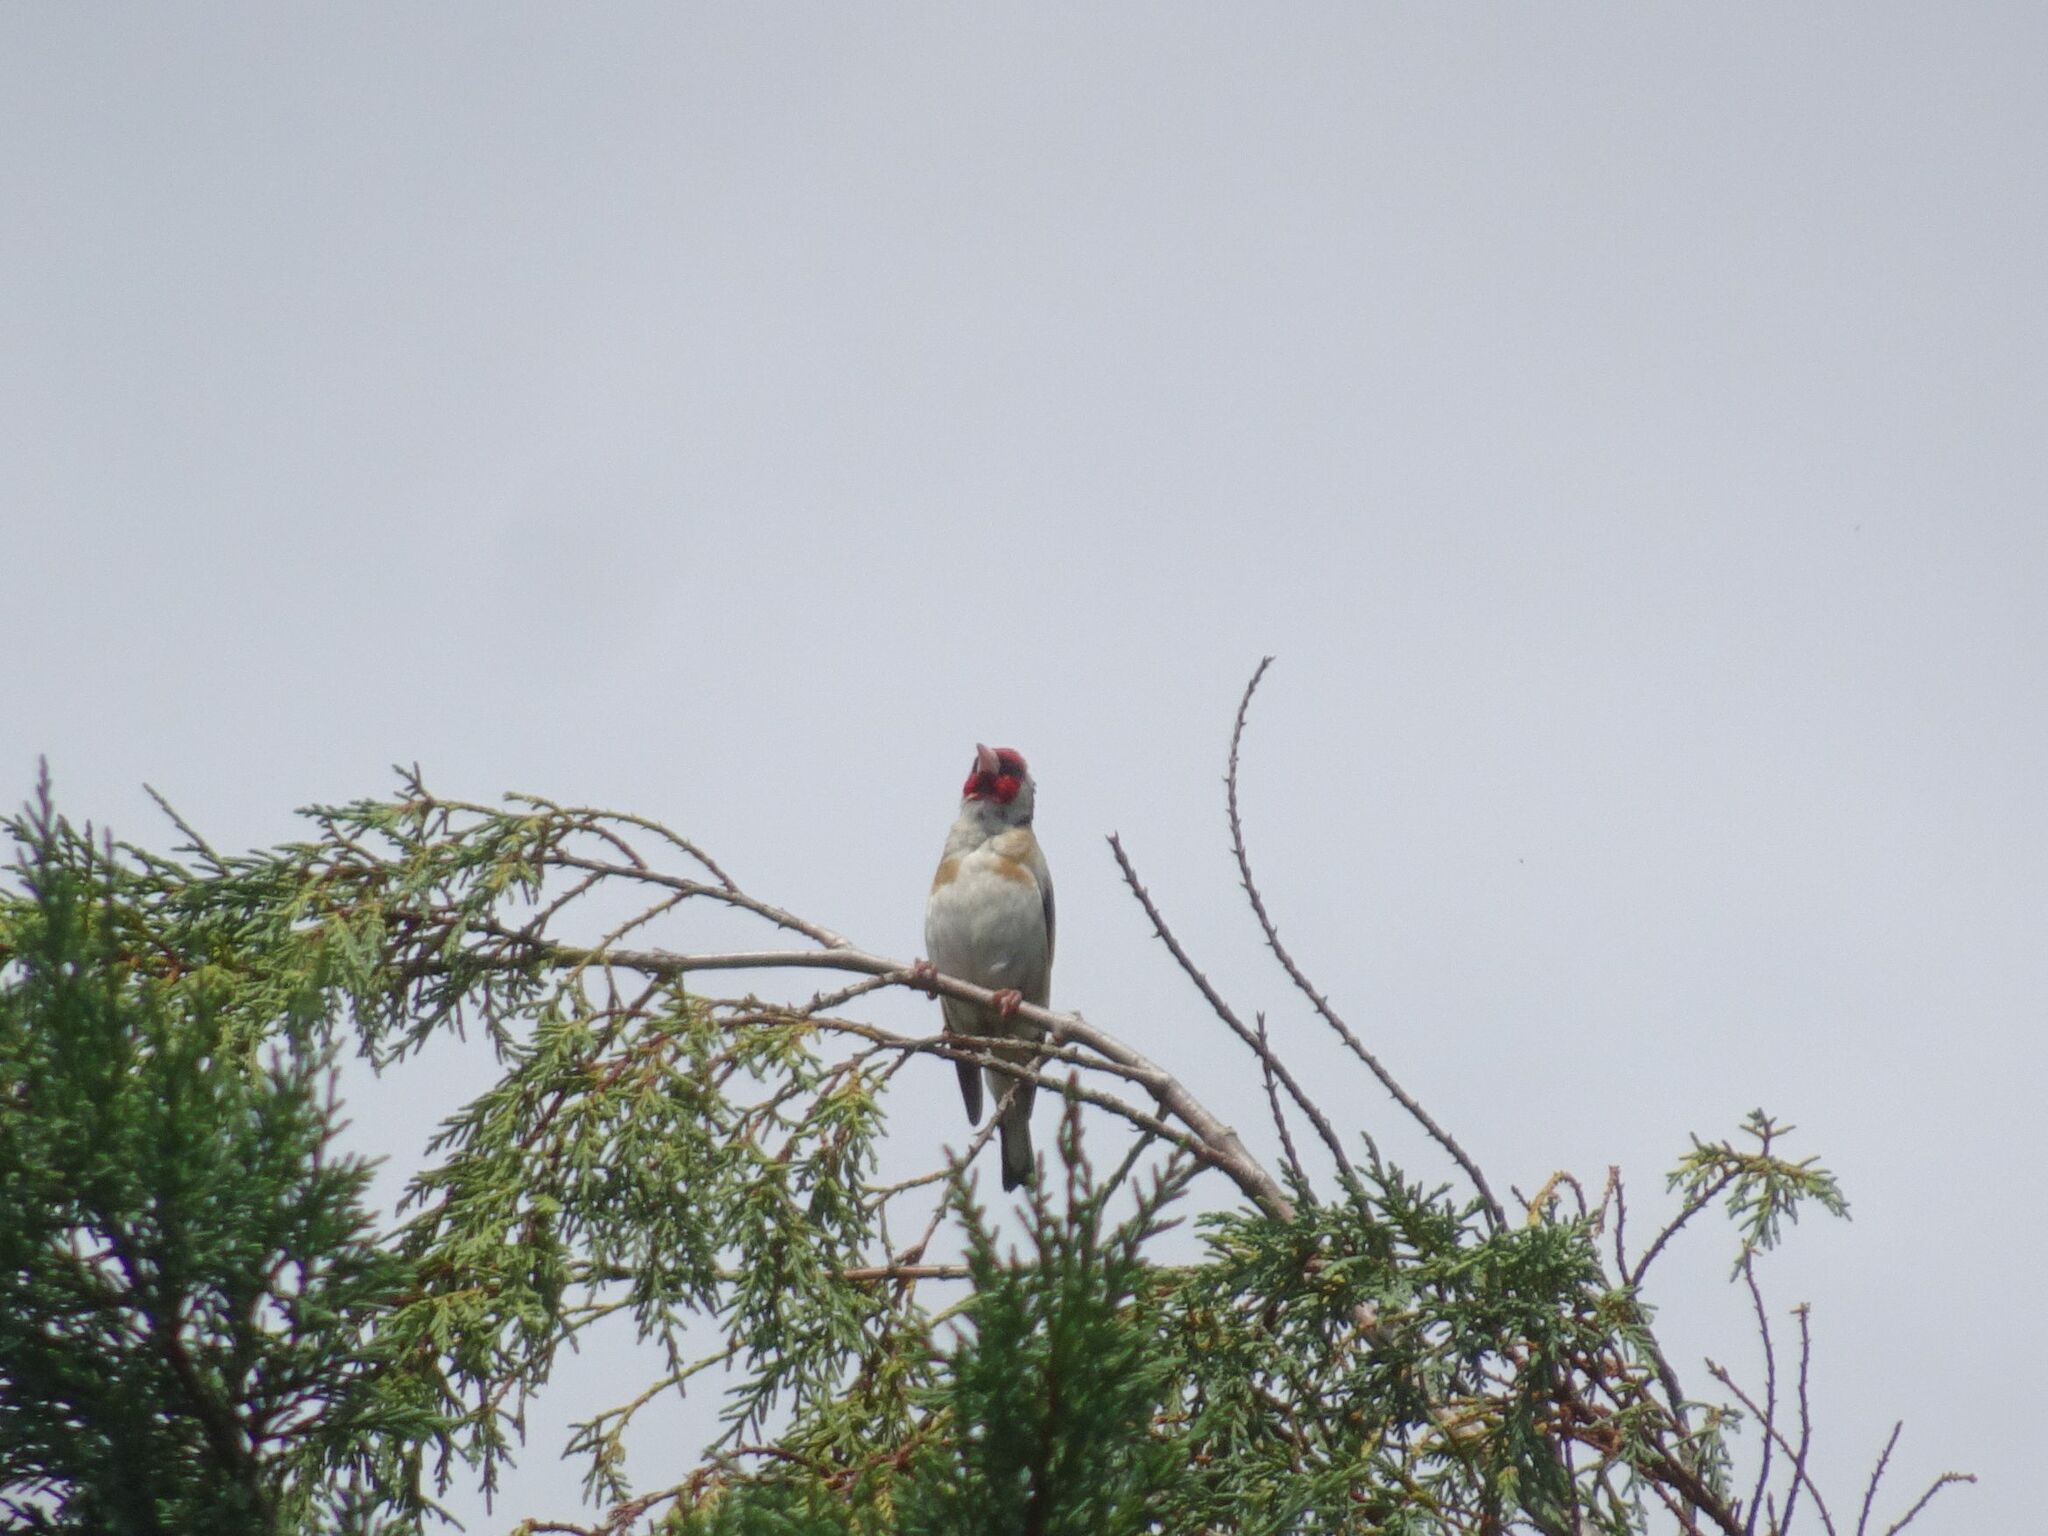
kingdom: Animalia
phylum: Chordata
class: Aves
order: Passeriformes
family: Fringillidae
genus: Carduelis
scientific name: Carduelis carduelis
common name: European goldfinch
